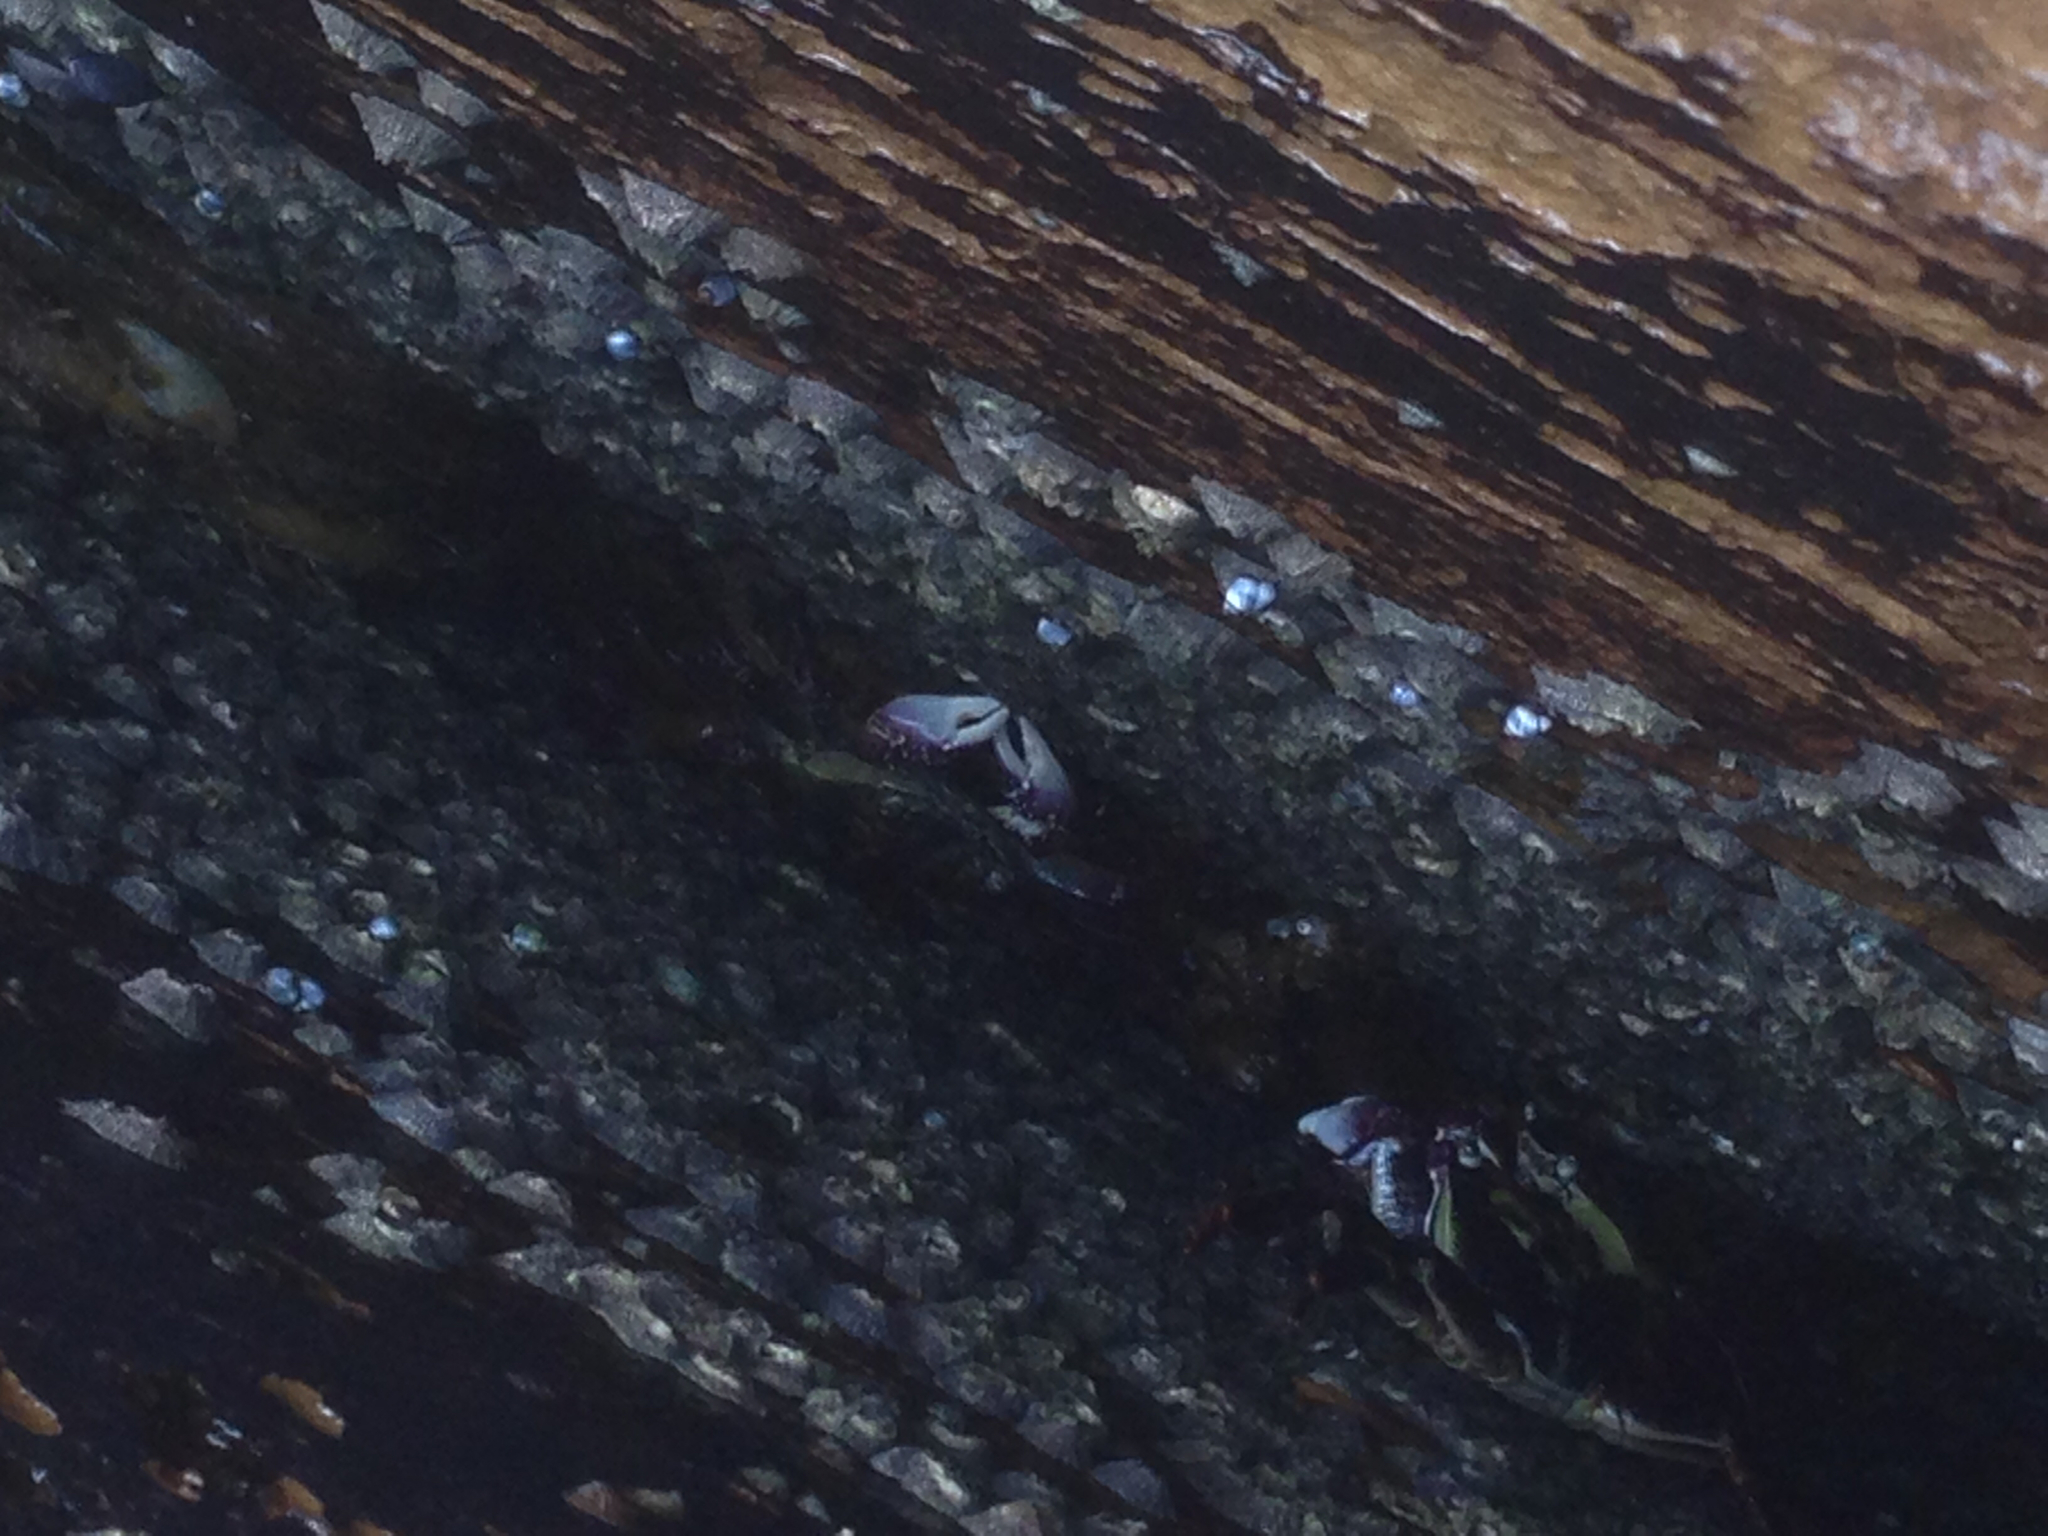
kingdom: Animalia
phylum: Arthropoda
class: Malacostraca
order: Decapoda
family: Grapsidae
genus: Leptograpsus
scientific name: Leptograpsus variegatus
